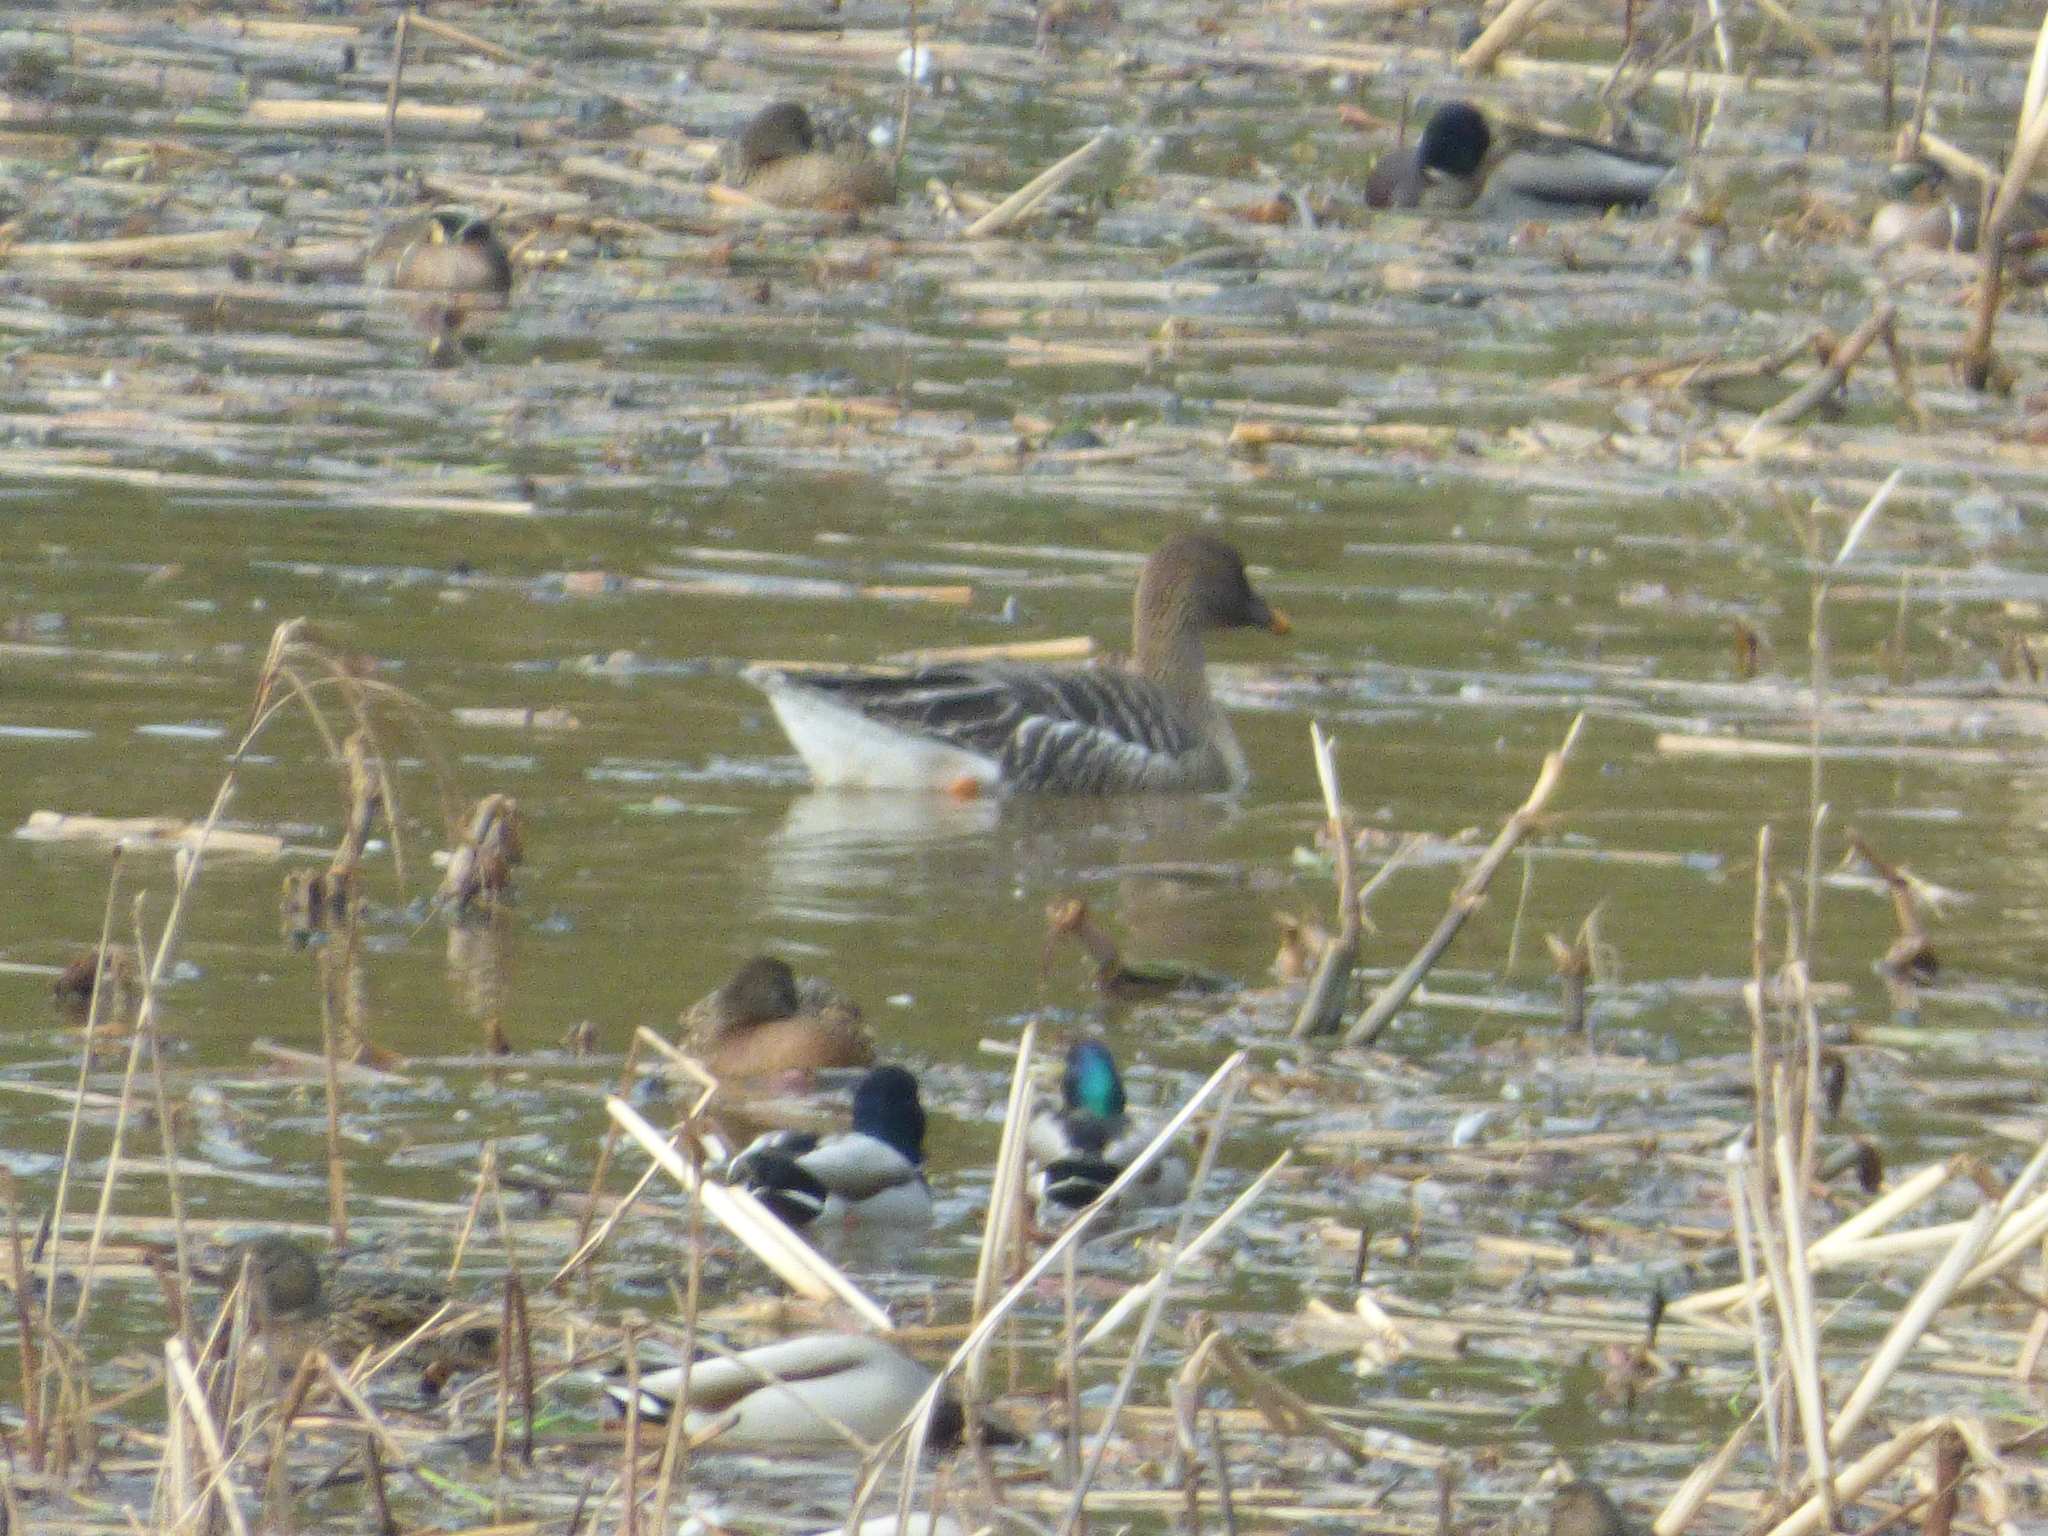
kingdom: Animalia
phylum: Chordata
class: Aves
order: Anseriformes
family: Anatidae
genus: Anas
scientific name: Anas platyrhynchos
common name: Mallard
